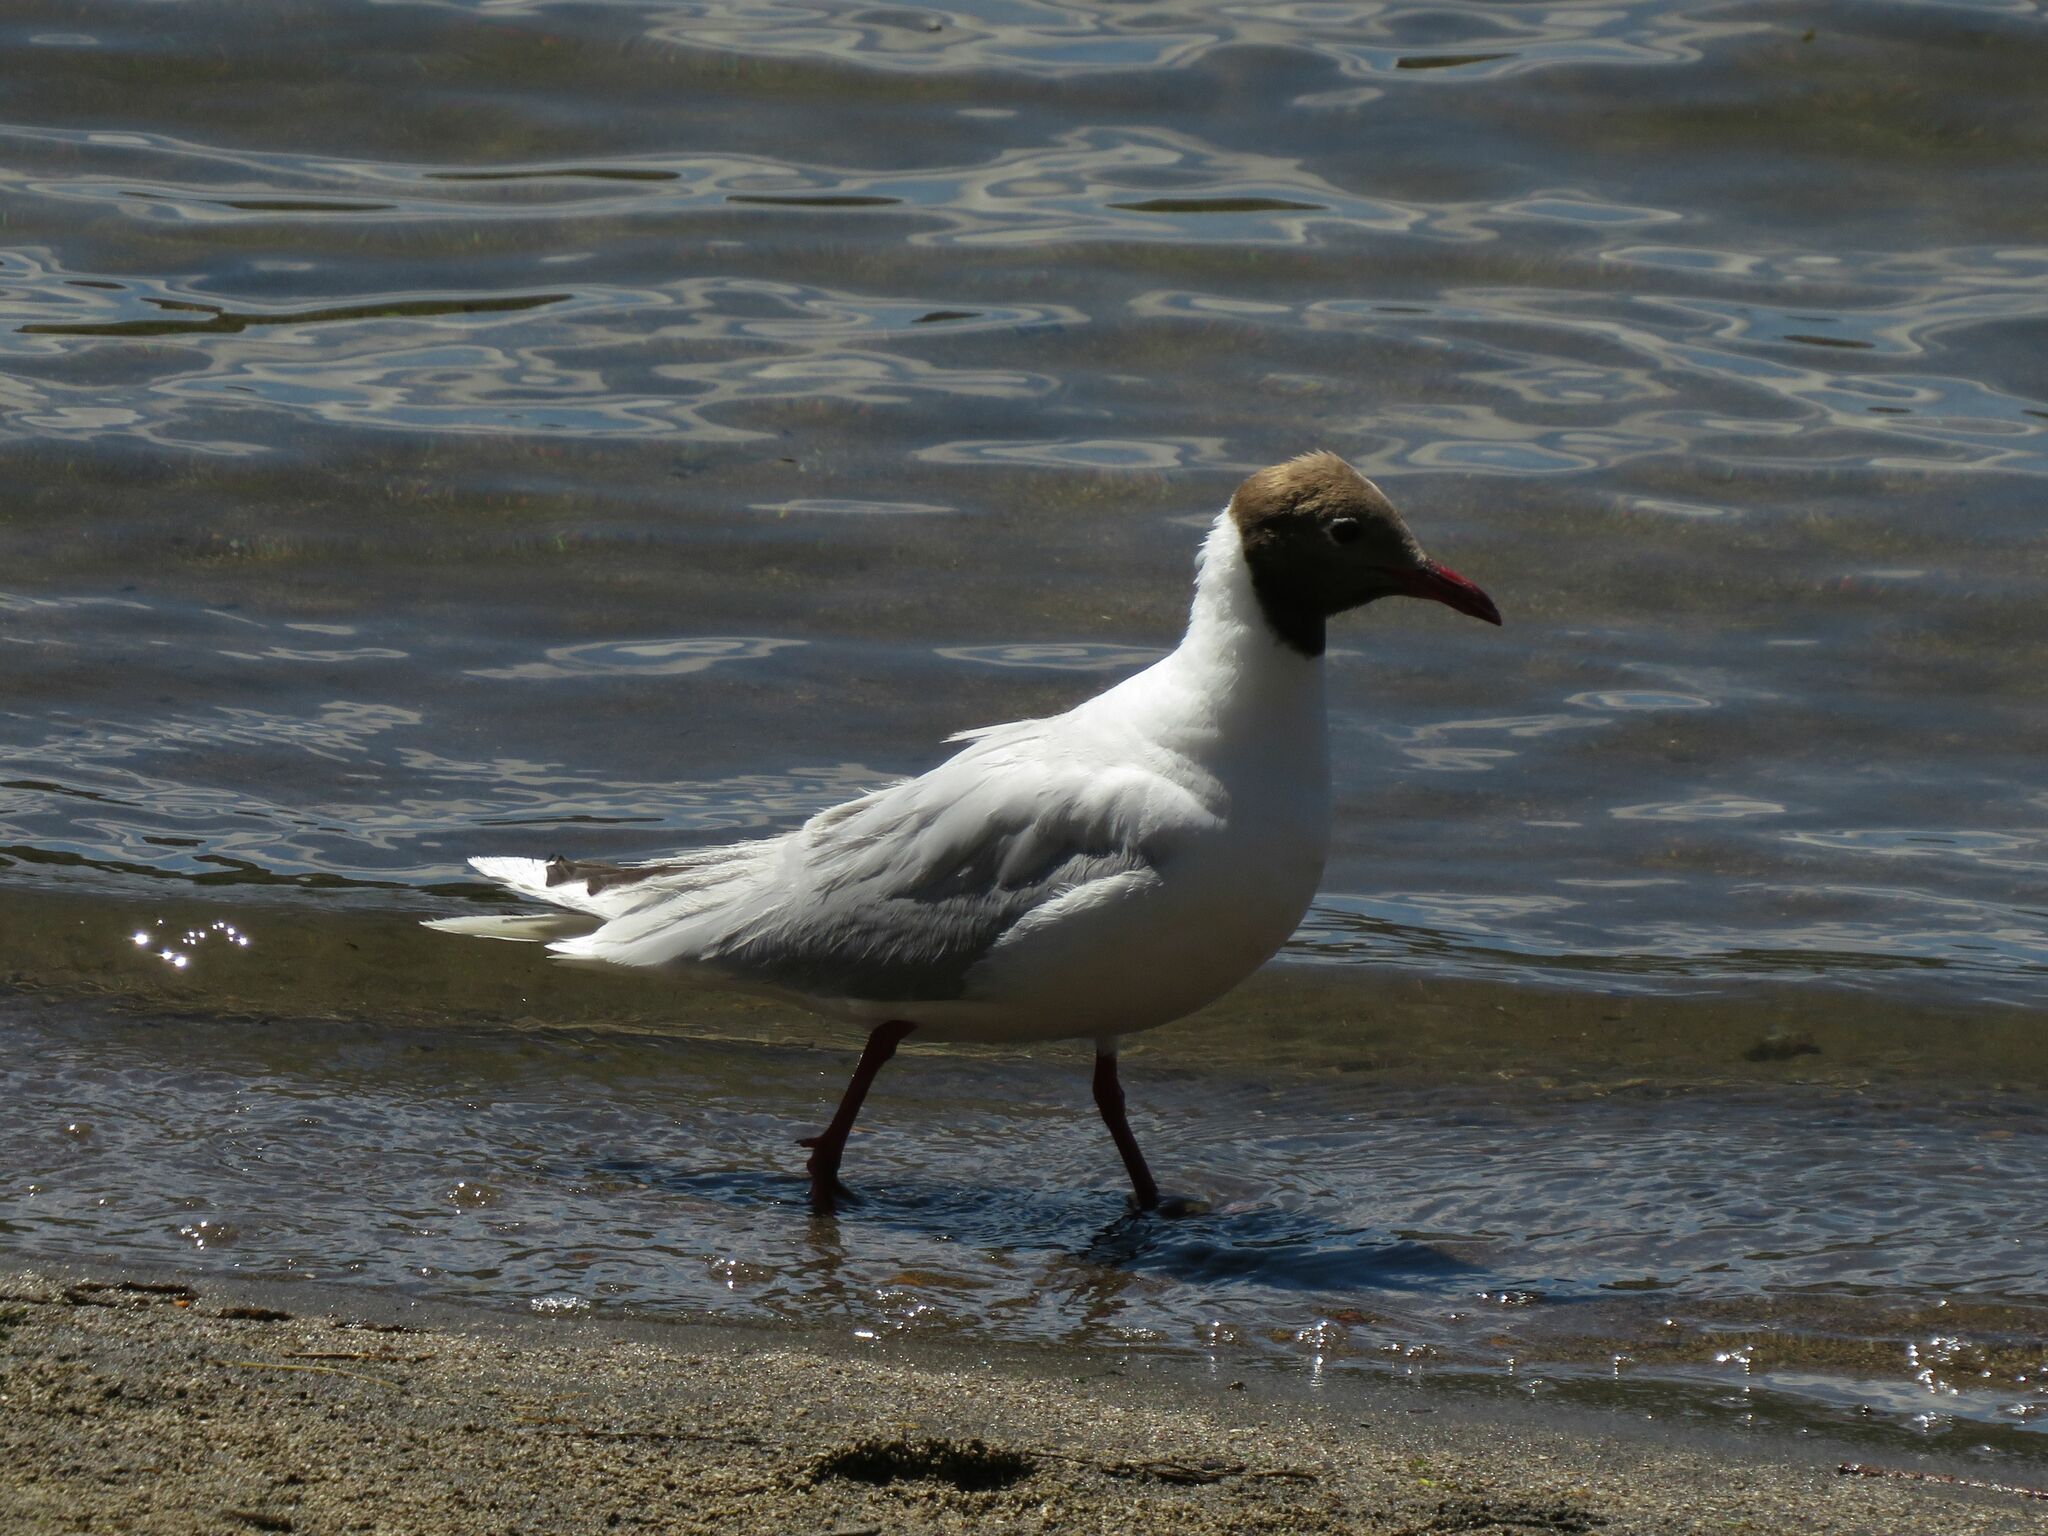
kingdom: Animalia
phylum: Chordata
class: Aves
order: Charadriiformes
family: Laridae
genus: Chroicocephalus
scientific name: Chroicocephalus maculipennis
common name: Brown-hooded gull
